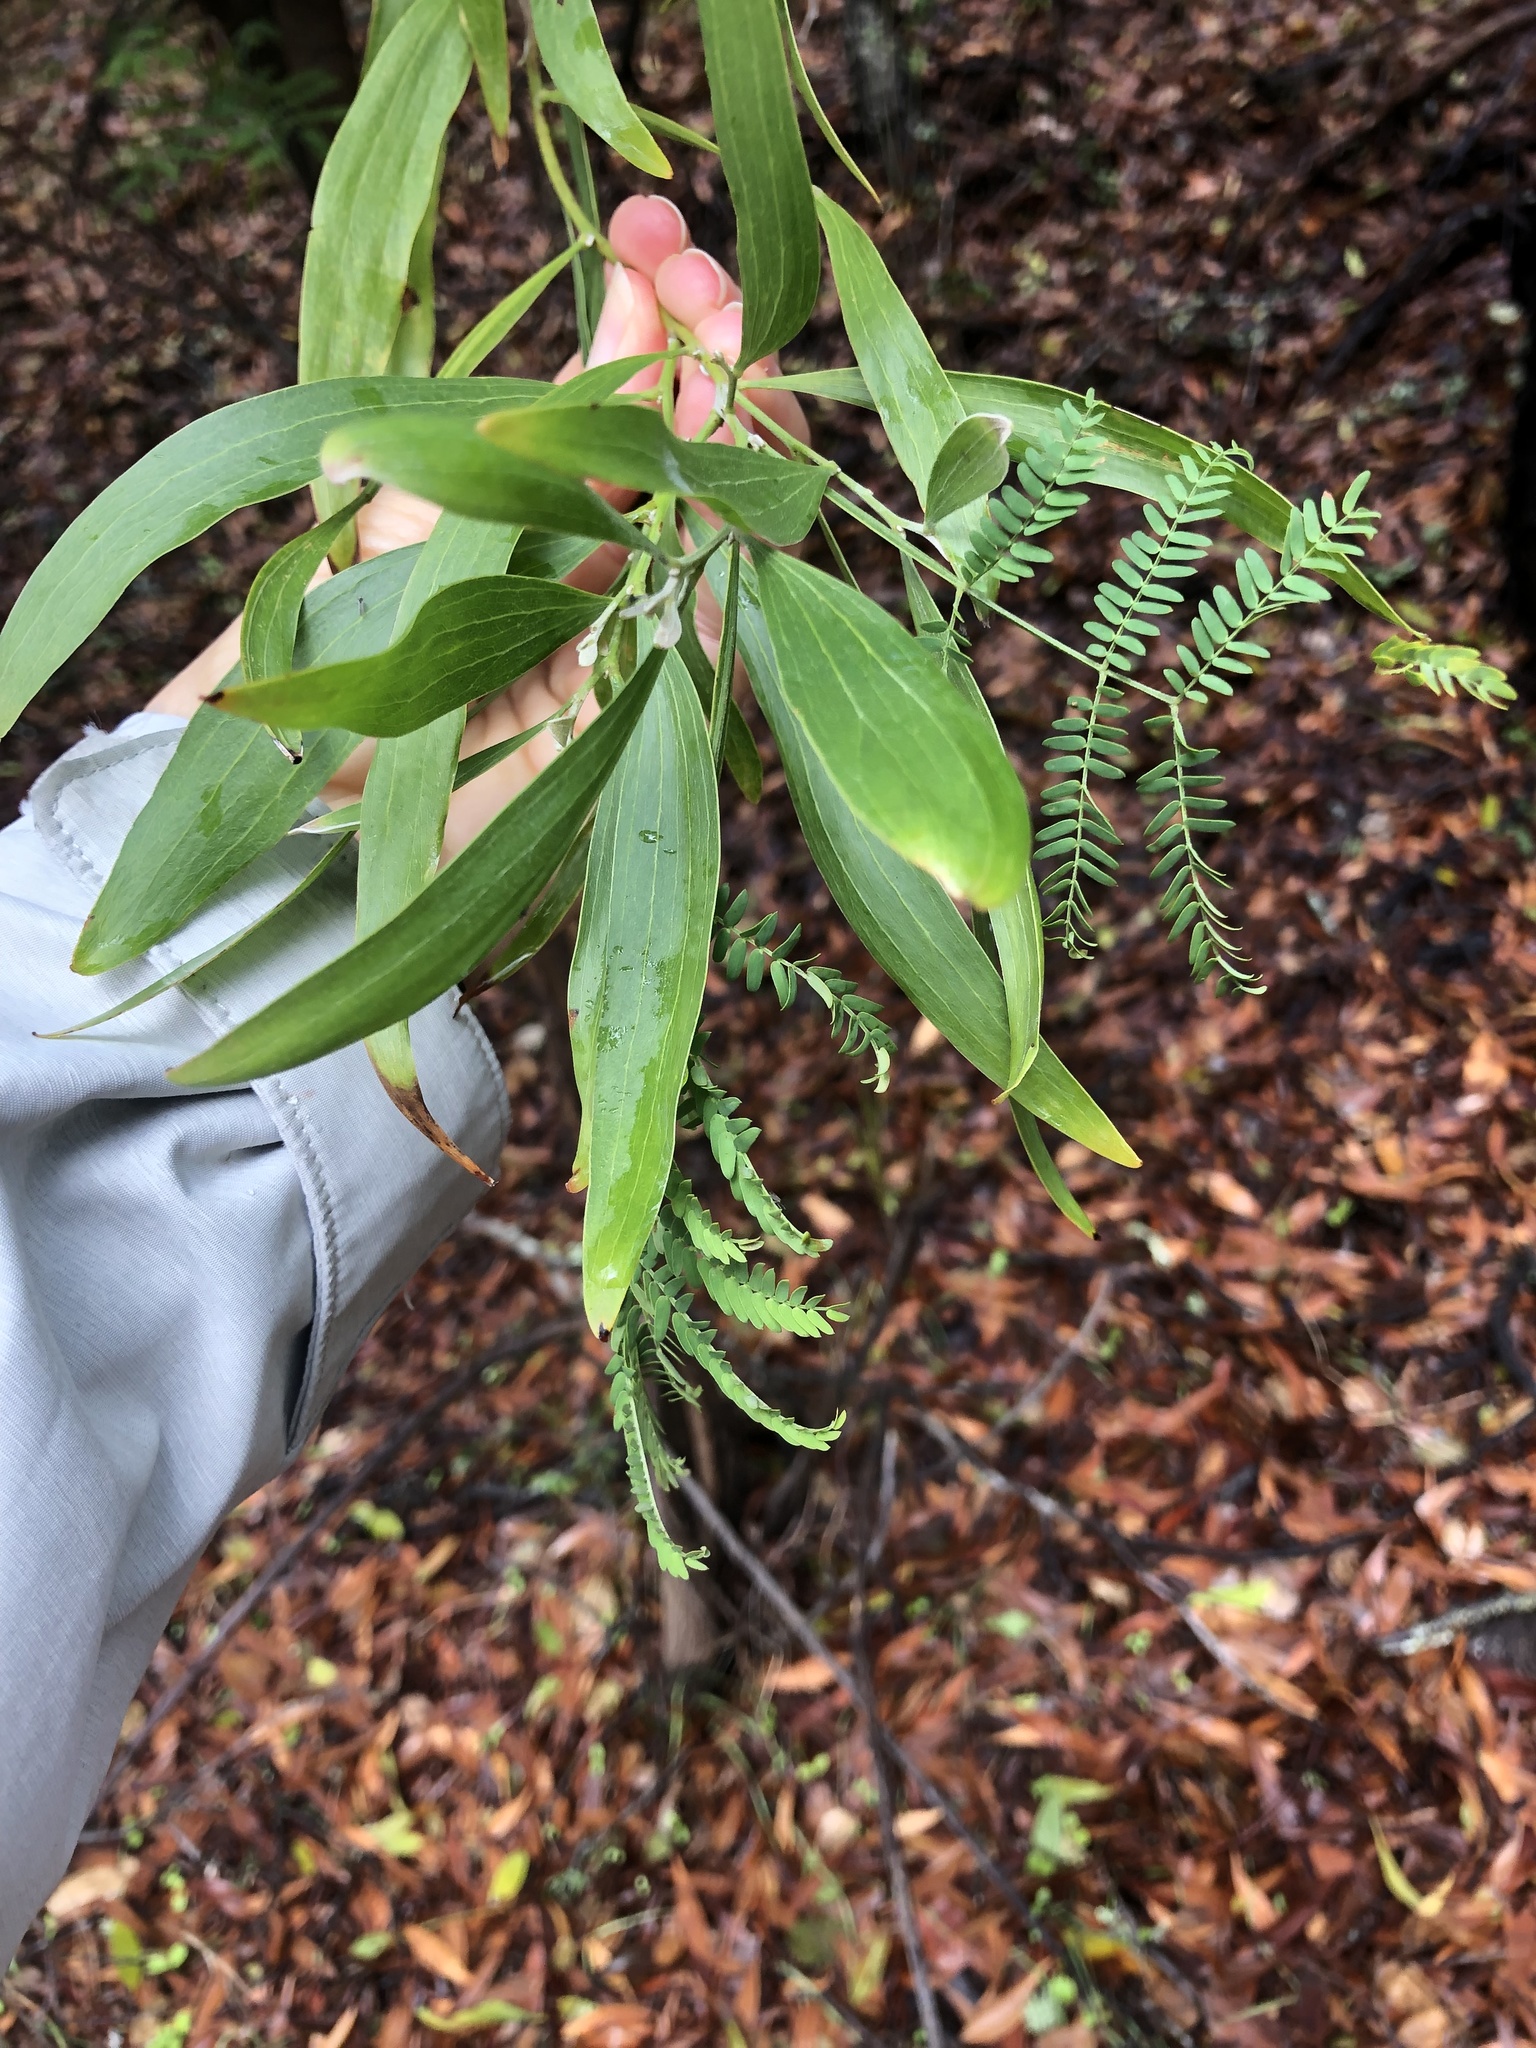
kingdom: Plantae
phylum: Tracheophyta
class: Magnoliopsida
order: Fabales
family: Fabaceae
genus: Acacia
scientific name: Acacia melanoxylon
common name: Blackwood
